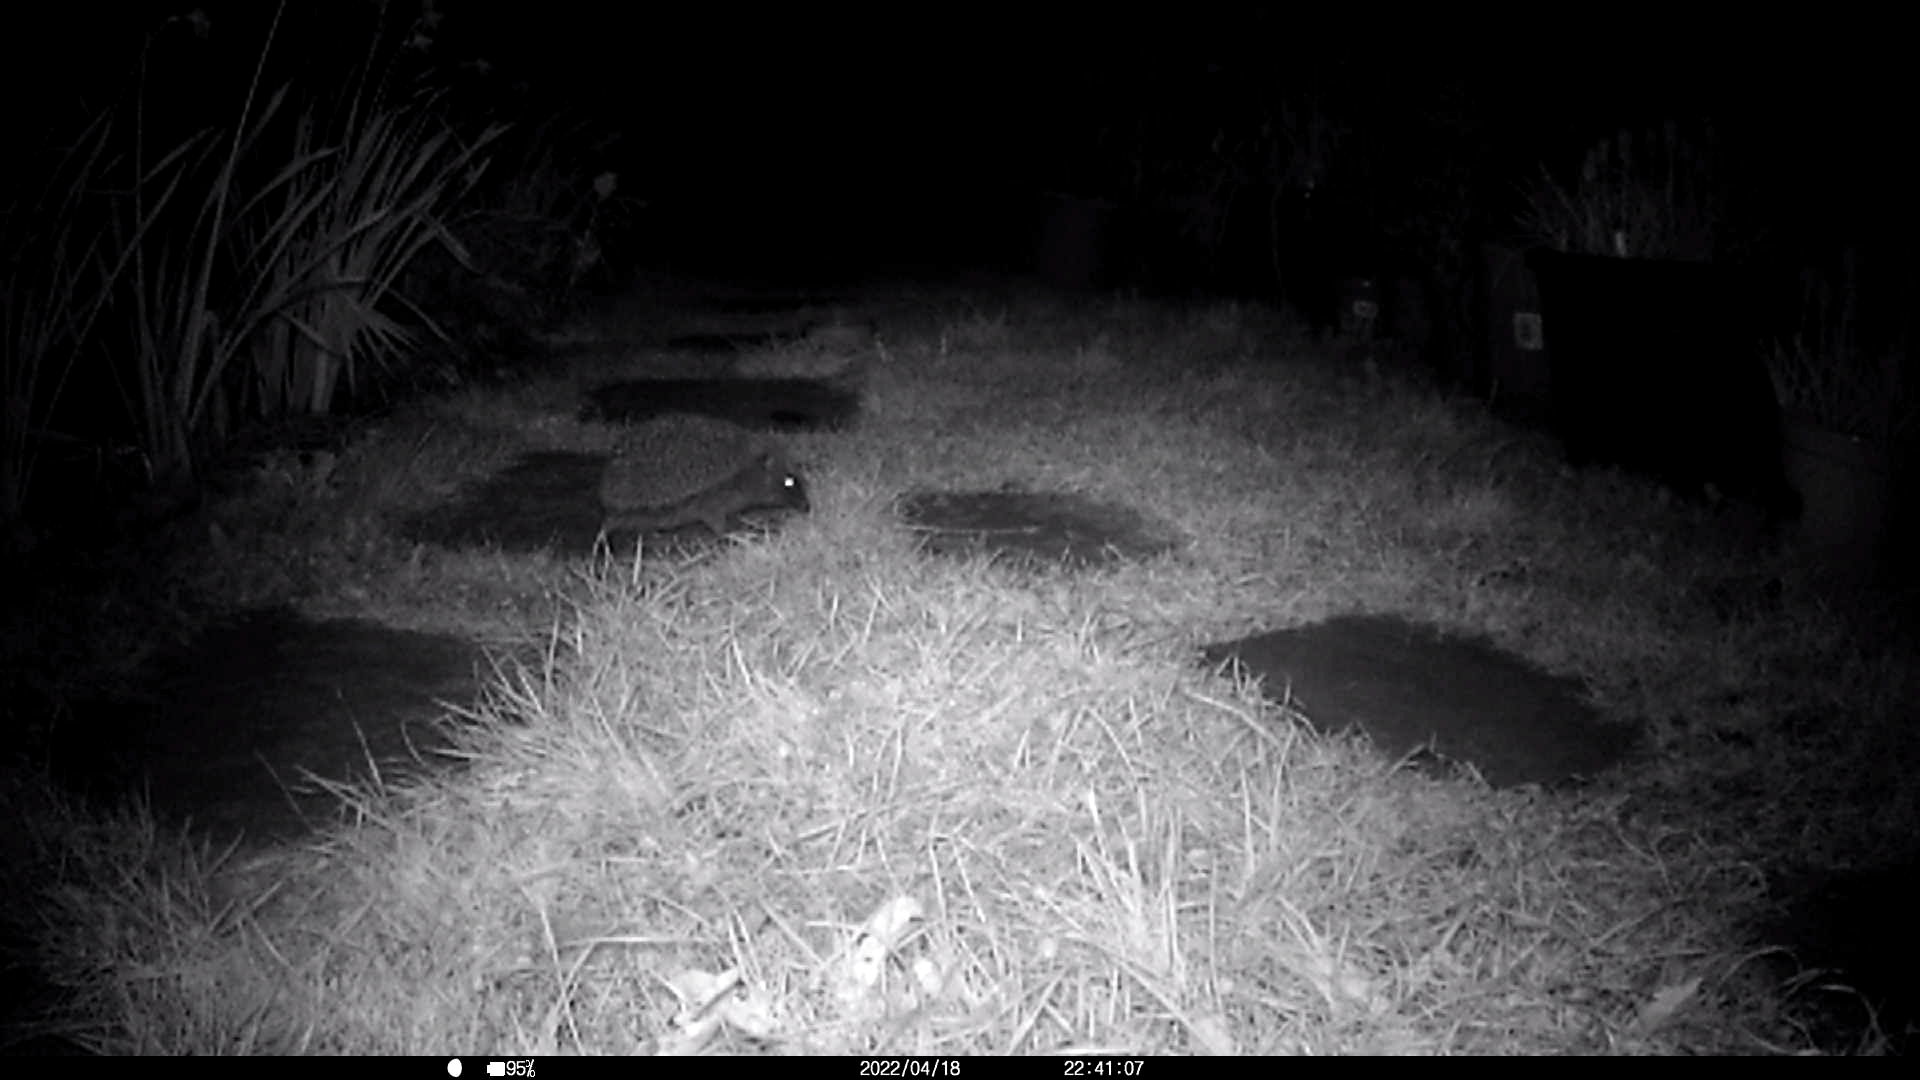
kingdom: Animalia
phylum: Chordata
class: Mammalia
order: Erinaceomorpha
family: Erinaceidae
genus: Erinaceus
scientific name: Erinaceus europaeus
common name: West european hedgehog
